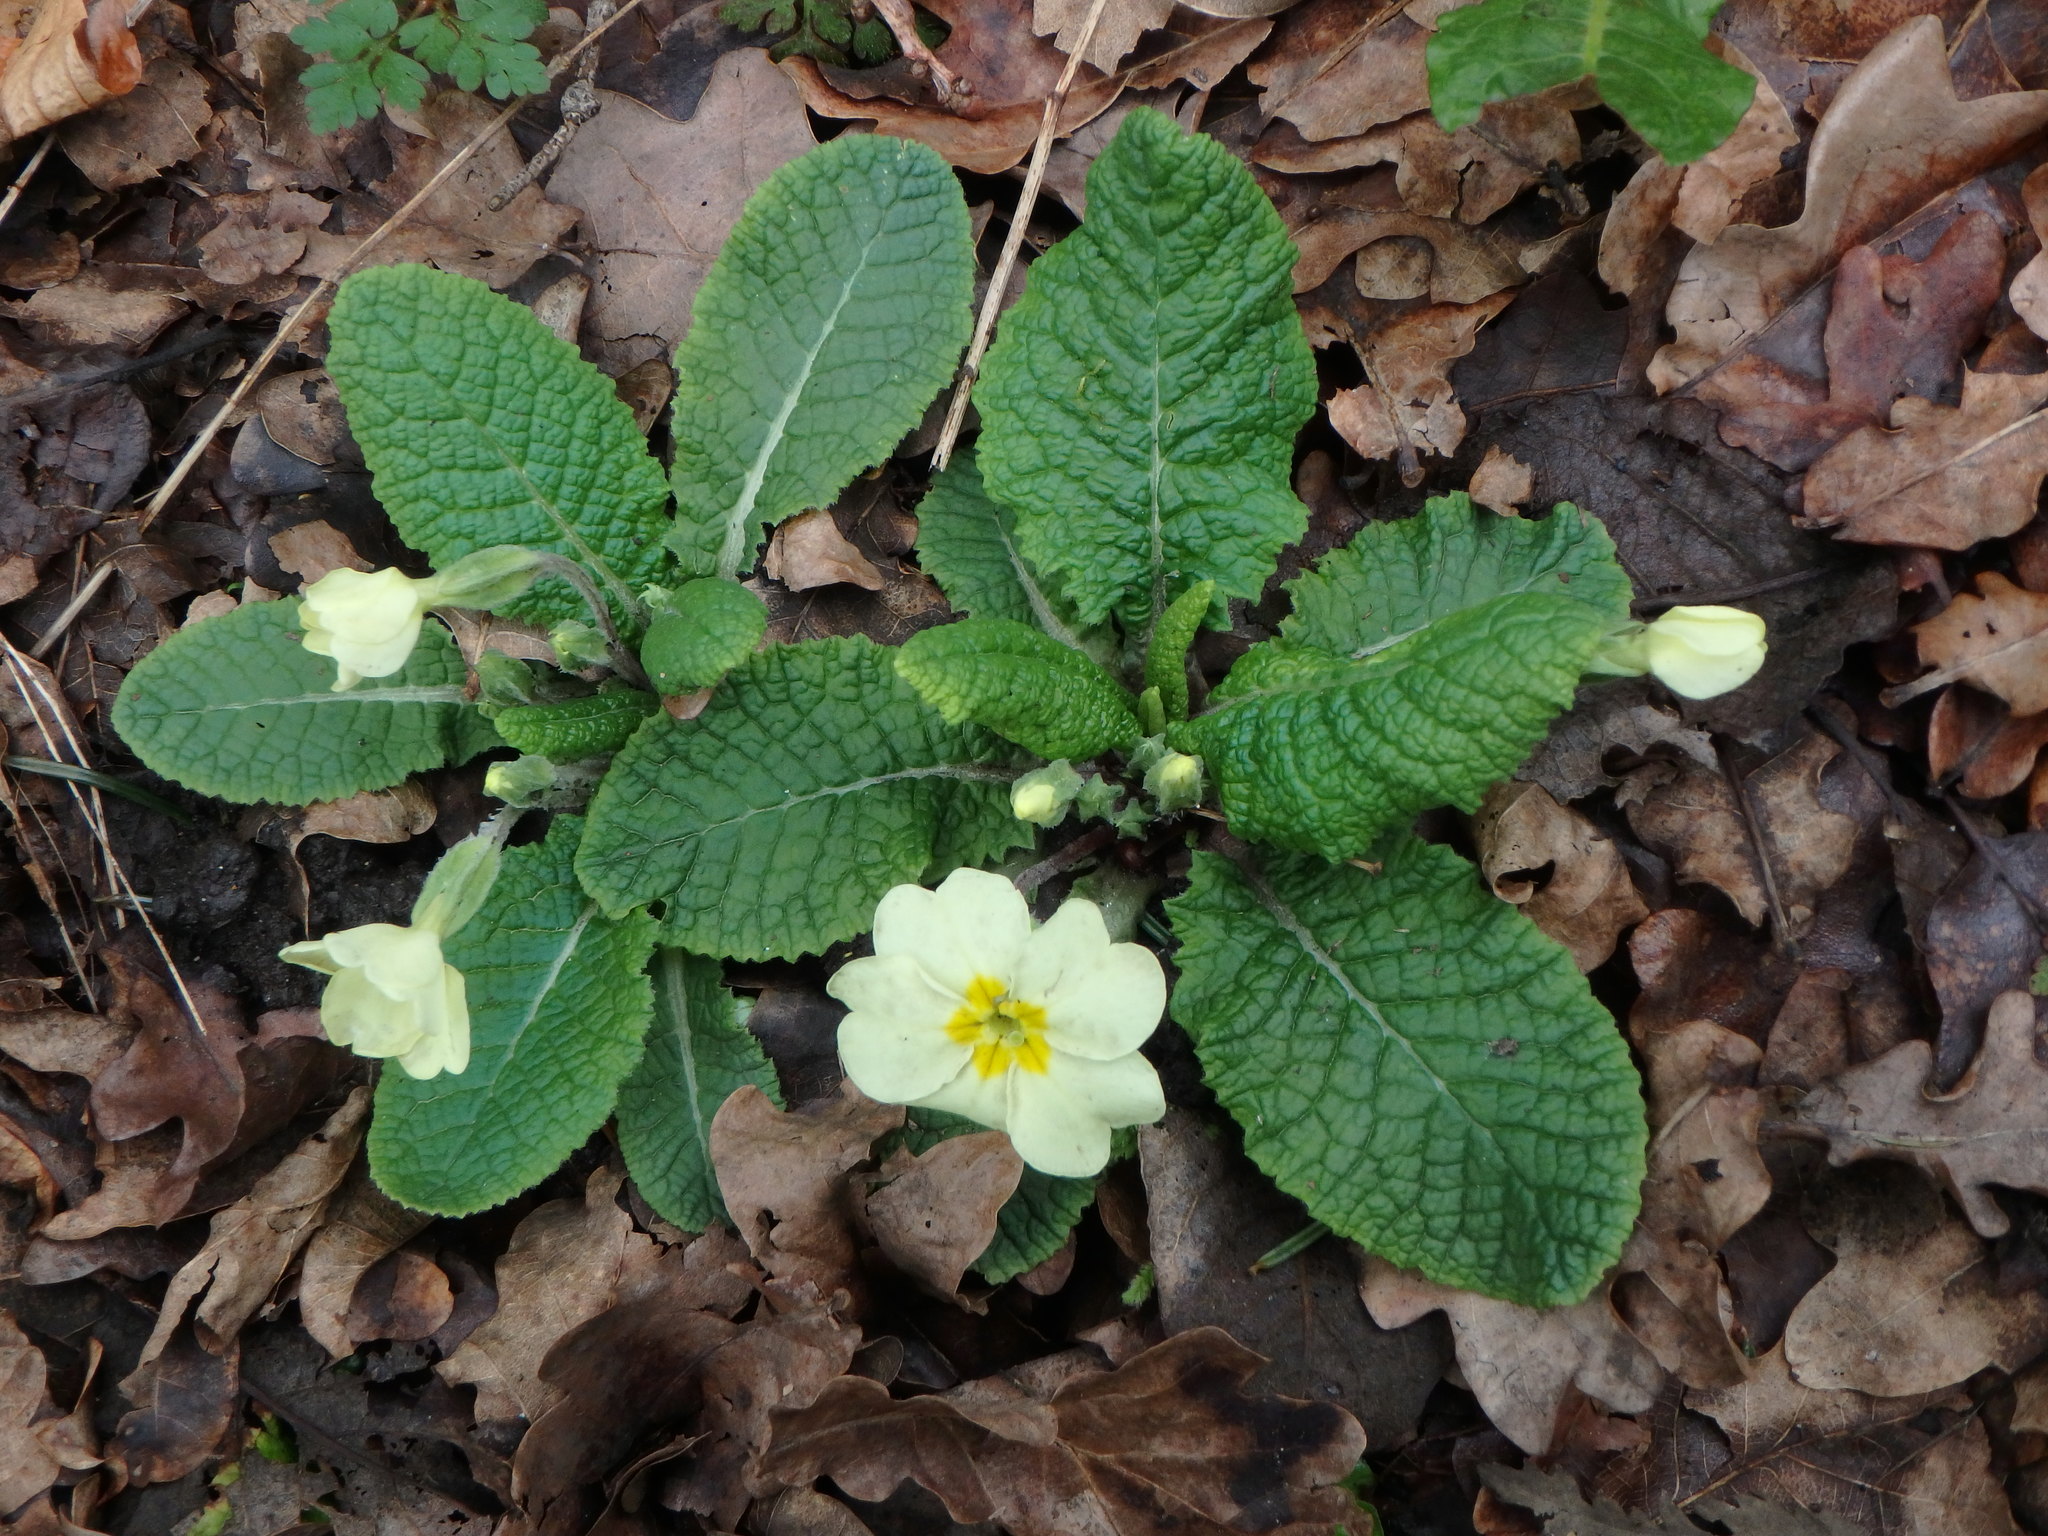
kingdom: Plantae
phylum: Tracheophyta
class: Magnoliopsida
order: Ericales
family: Primulaceae
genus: Primula
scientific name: Primula vulgaris
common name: Primrose
